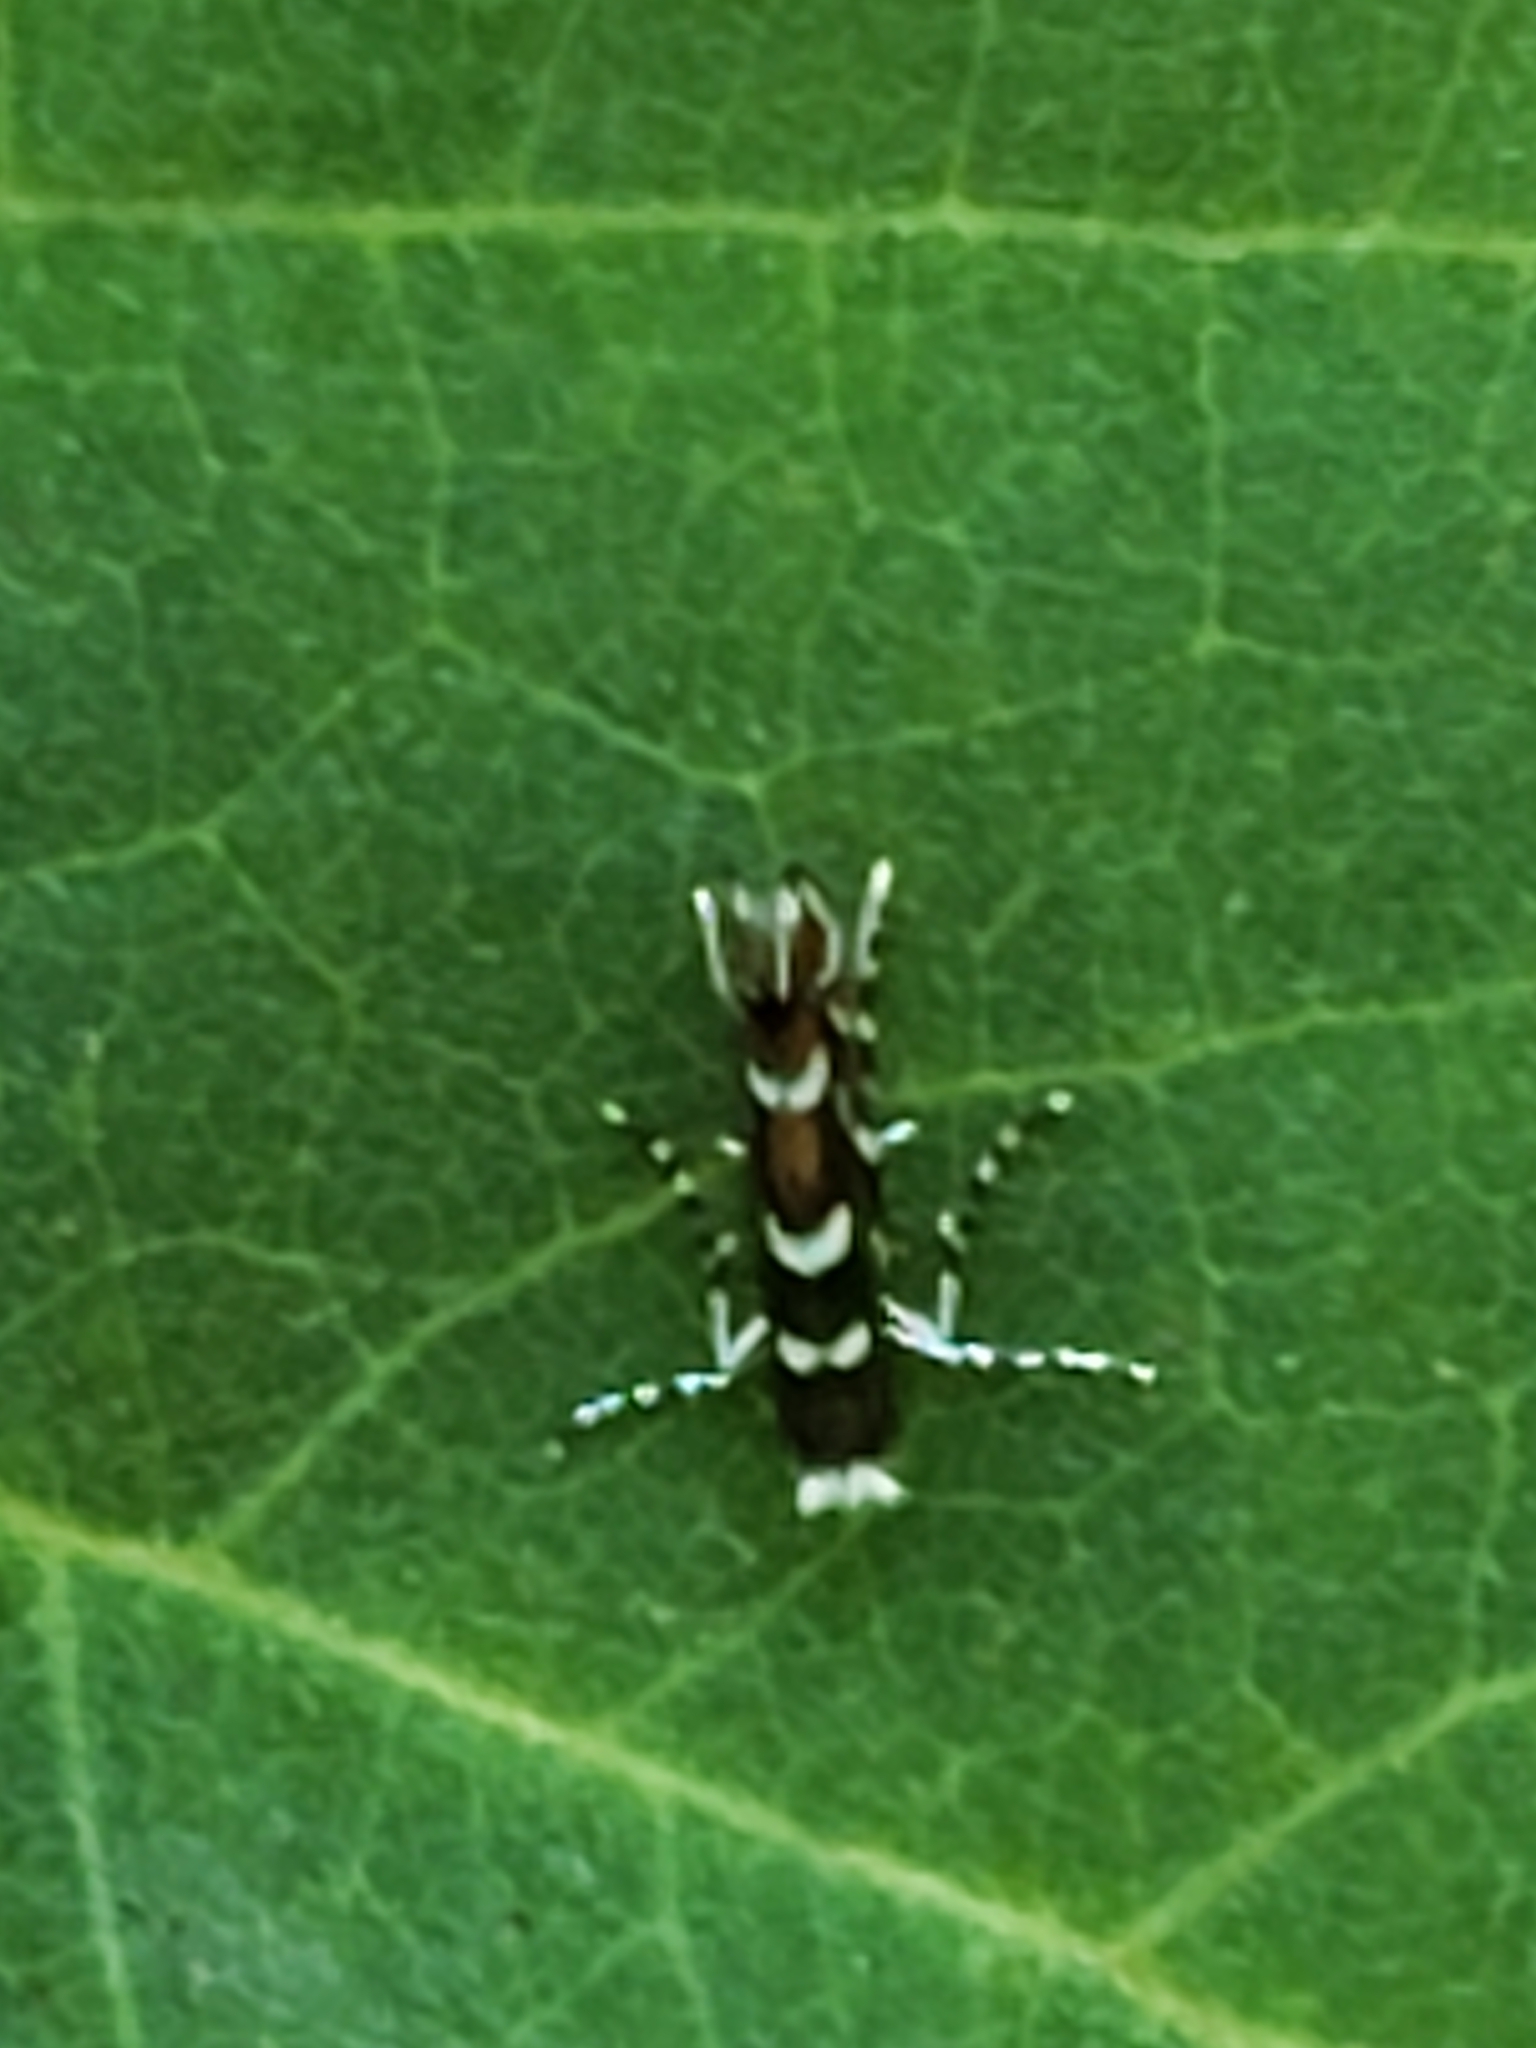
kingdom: Animalia
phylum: Arthropoda
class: Insecta
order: Lepidoptera
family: Gracillariidae
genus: Parectopa
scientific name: Parectopa robiniella
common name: Locust digitate leafminer
